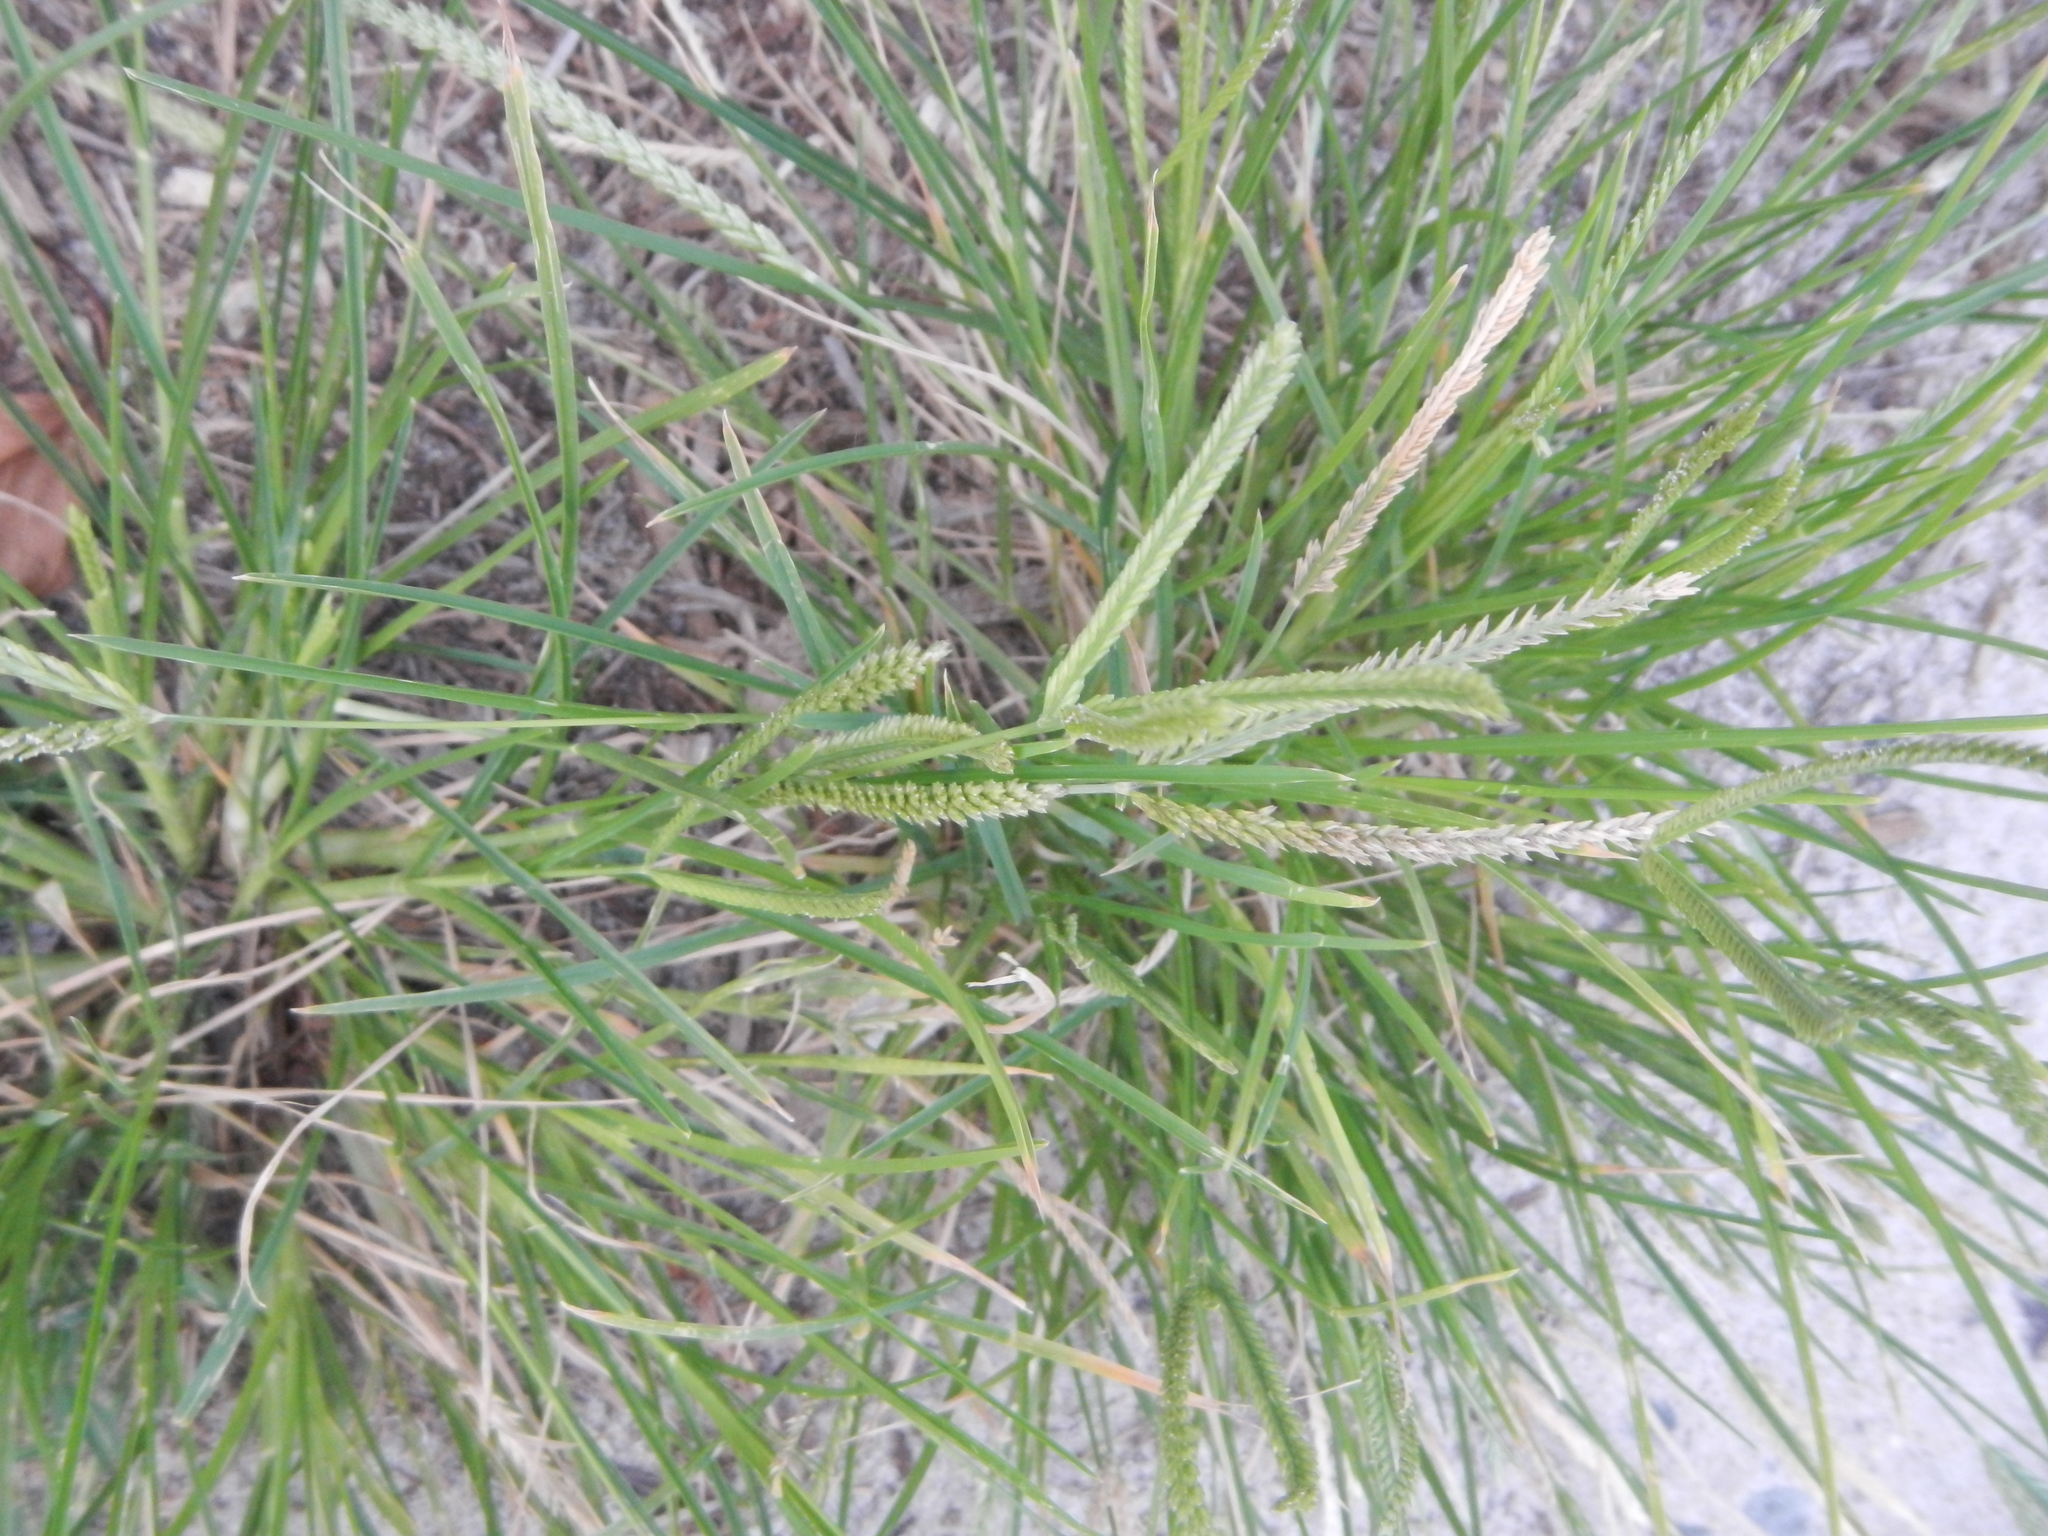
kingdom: Plantae
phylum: Tracheophyta
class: Liliopsida
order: Poales
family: Poaceae
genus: Eleusine
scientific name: Eleusine indica
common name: Yard-grass
